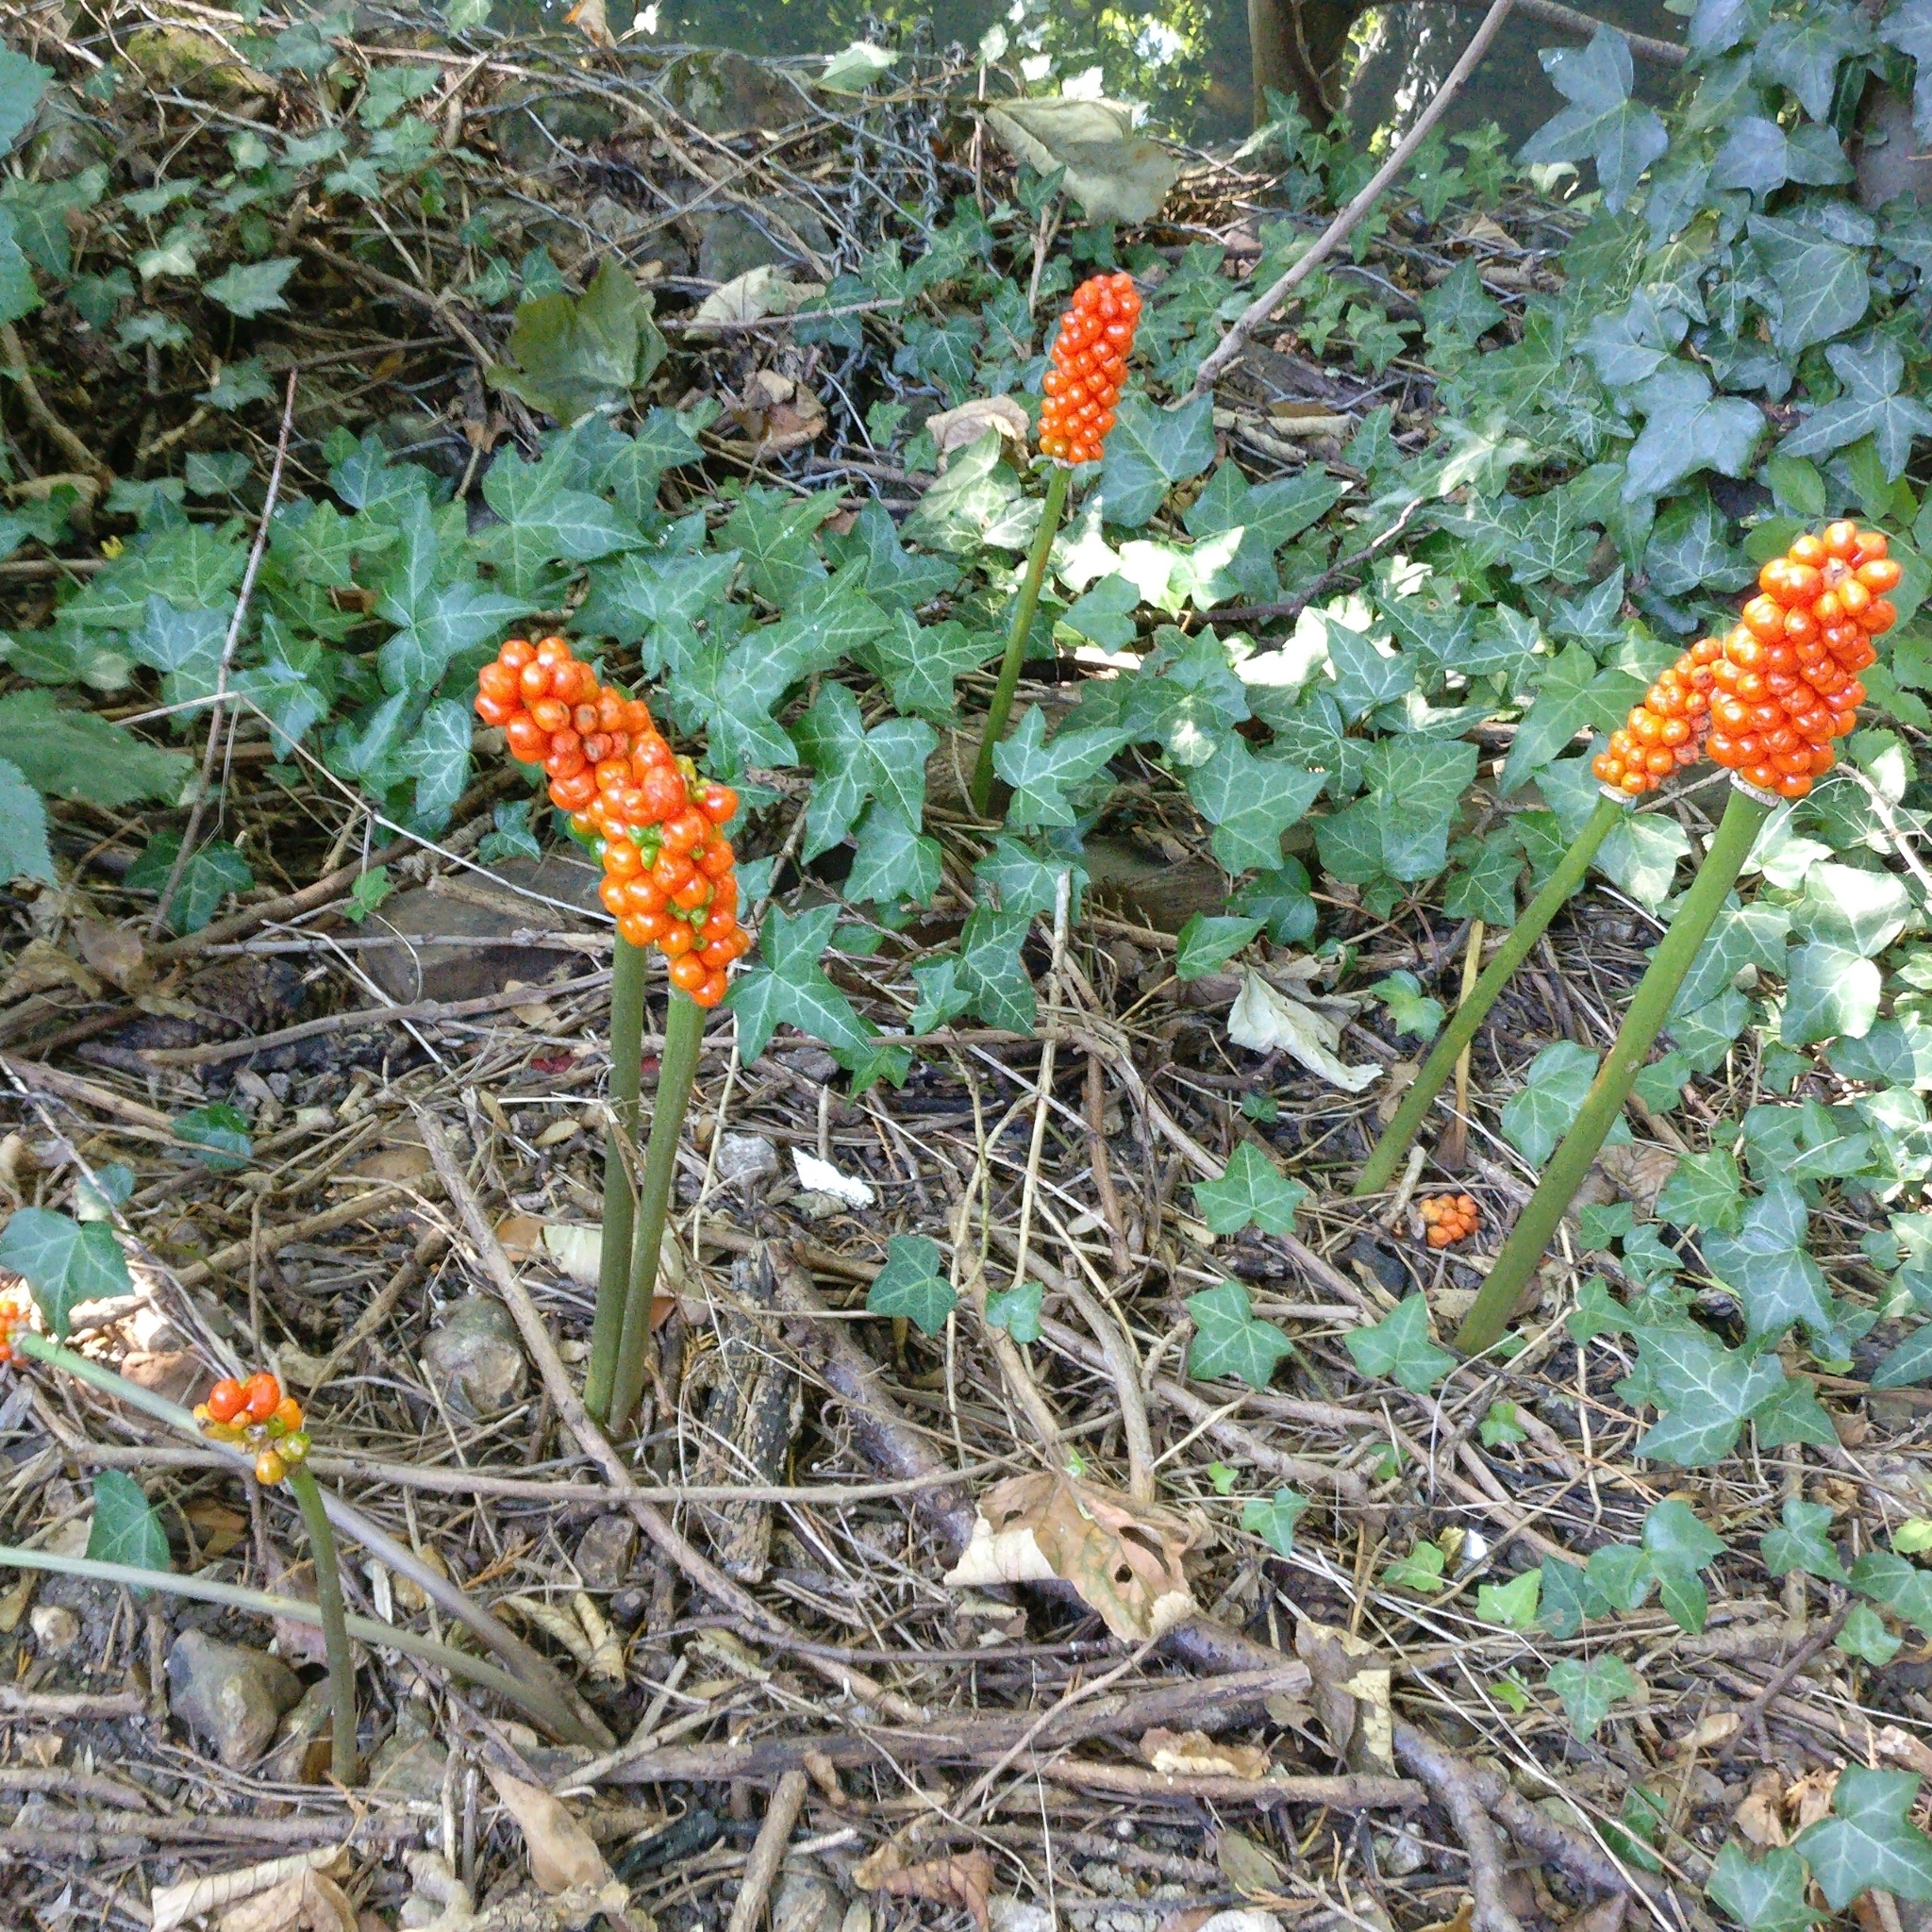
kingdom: Plantae
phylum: Tracheophyta
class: Liliopsida
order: Alismatales
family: Araceae
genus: Arum
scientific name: Arum maculatum
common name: Lords-and-ladies
